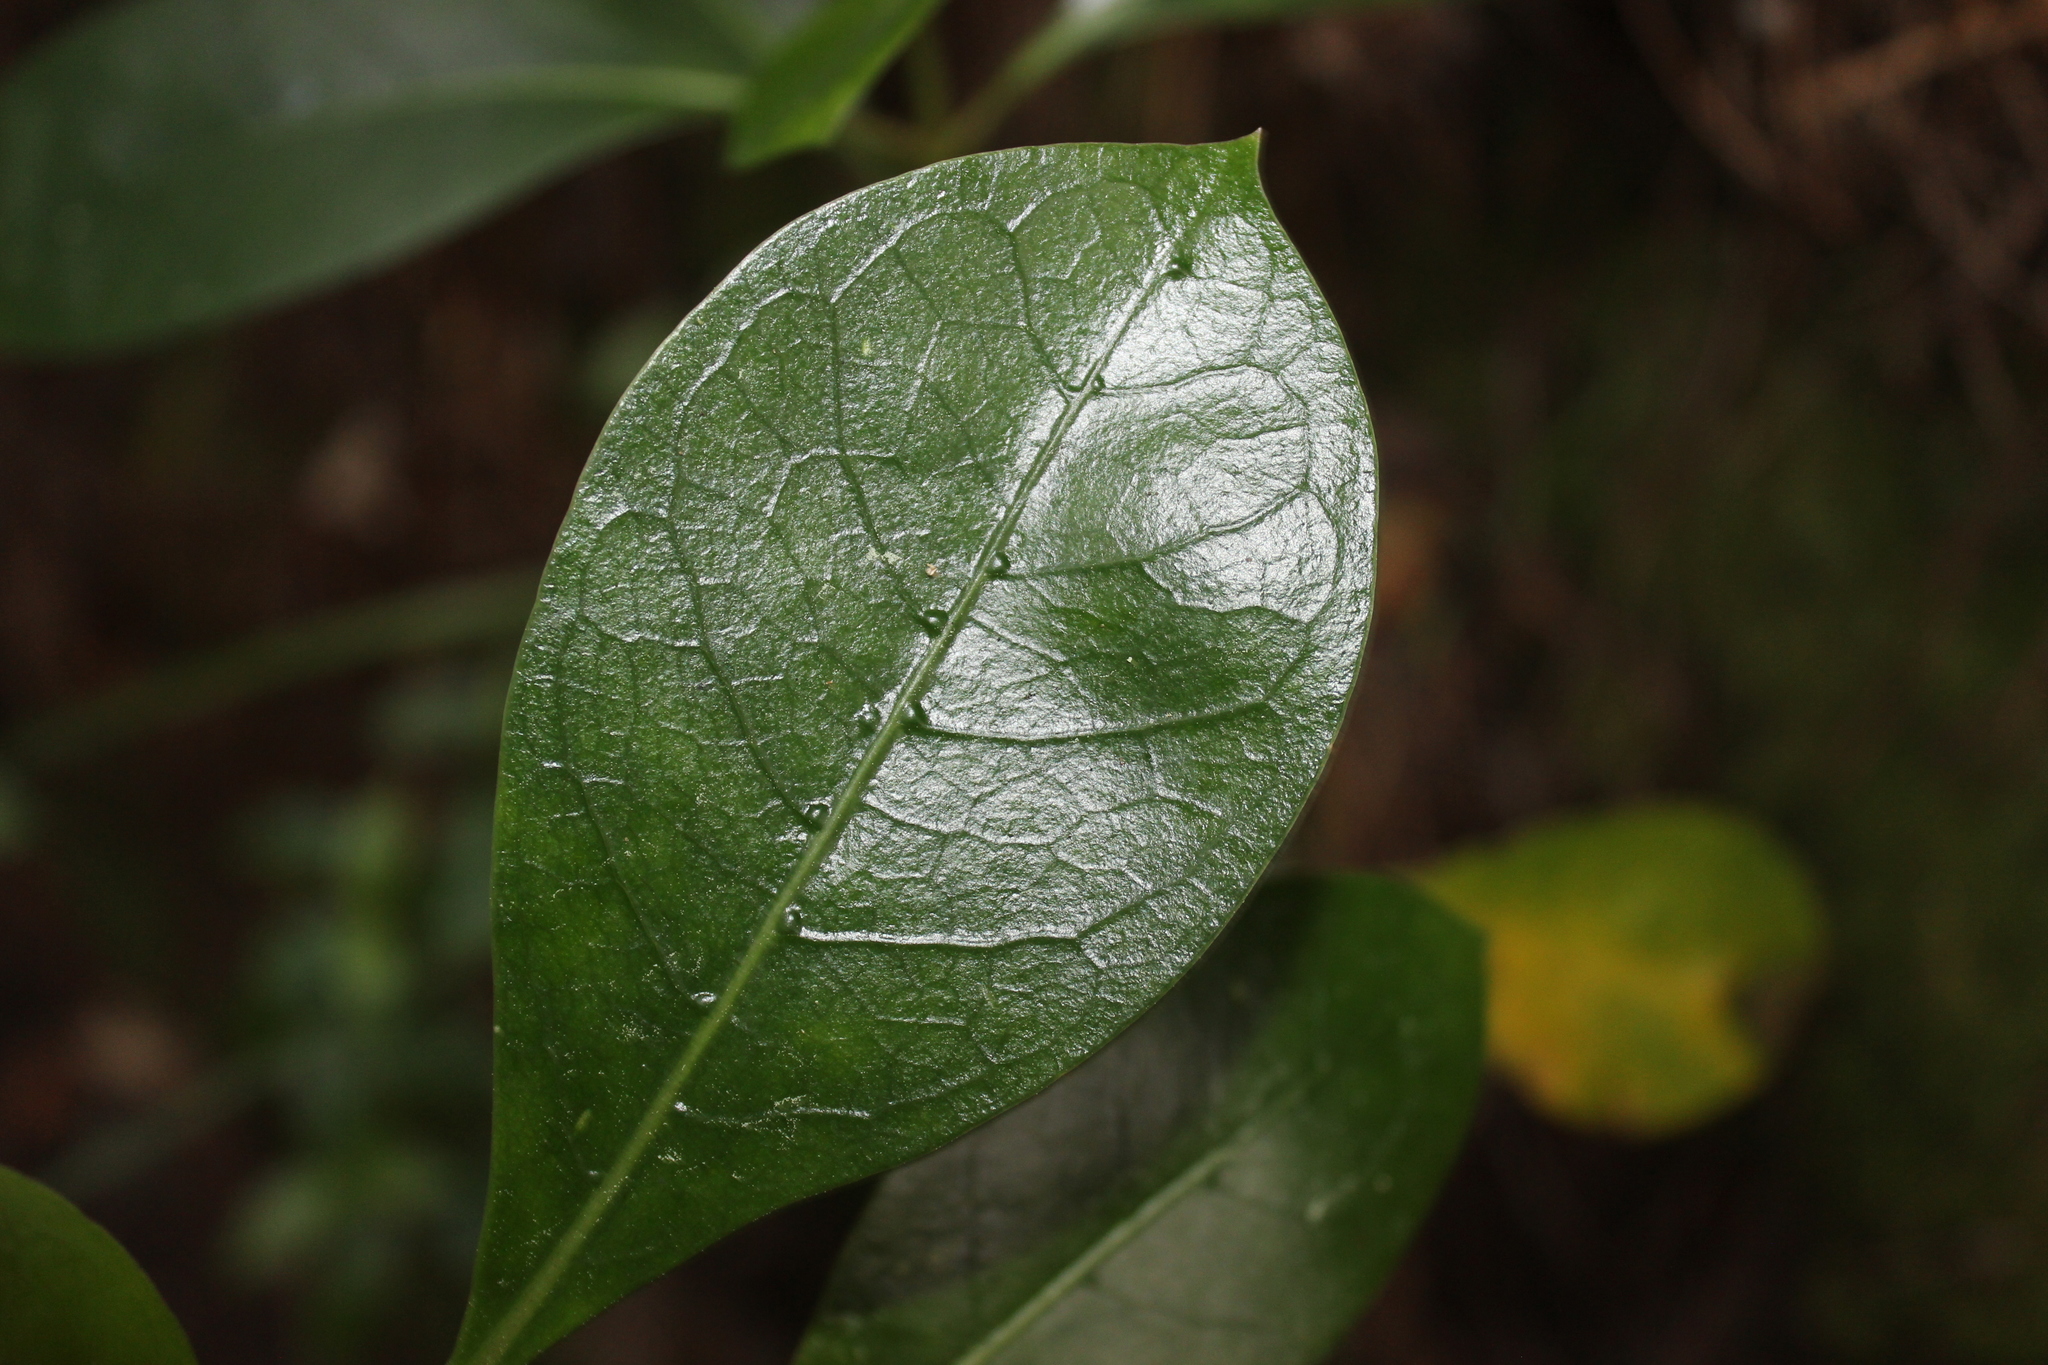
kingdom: Plantae
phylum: Tracheophyta
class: Magnoliopsida
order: Gentianales
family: Rubiaceae
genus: Coprosma
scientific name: Coprosma lucida
